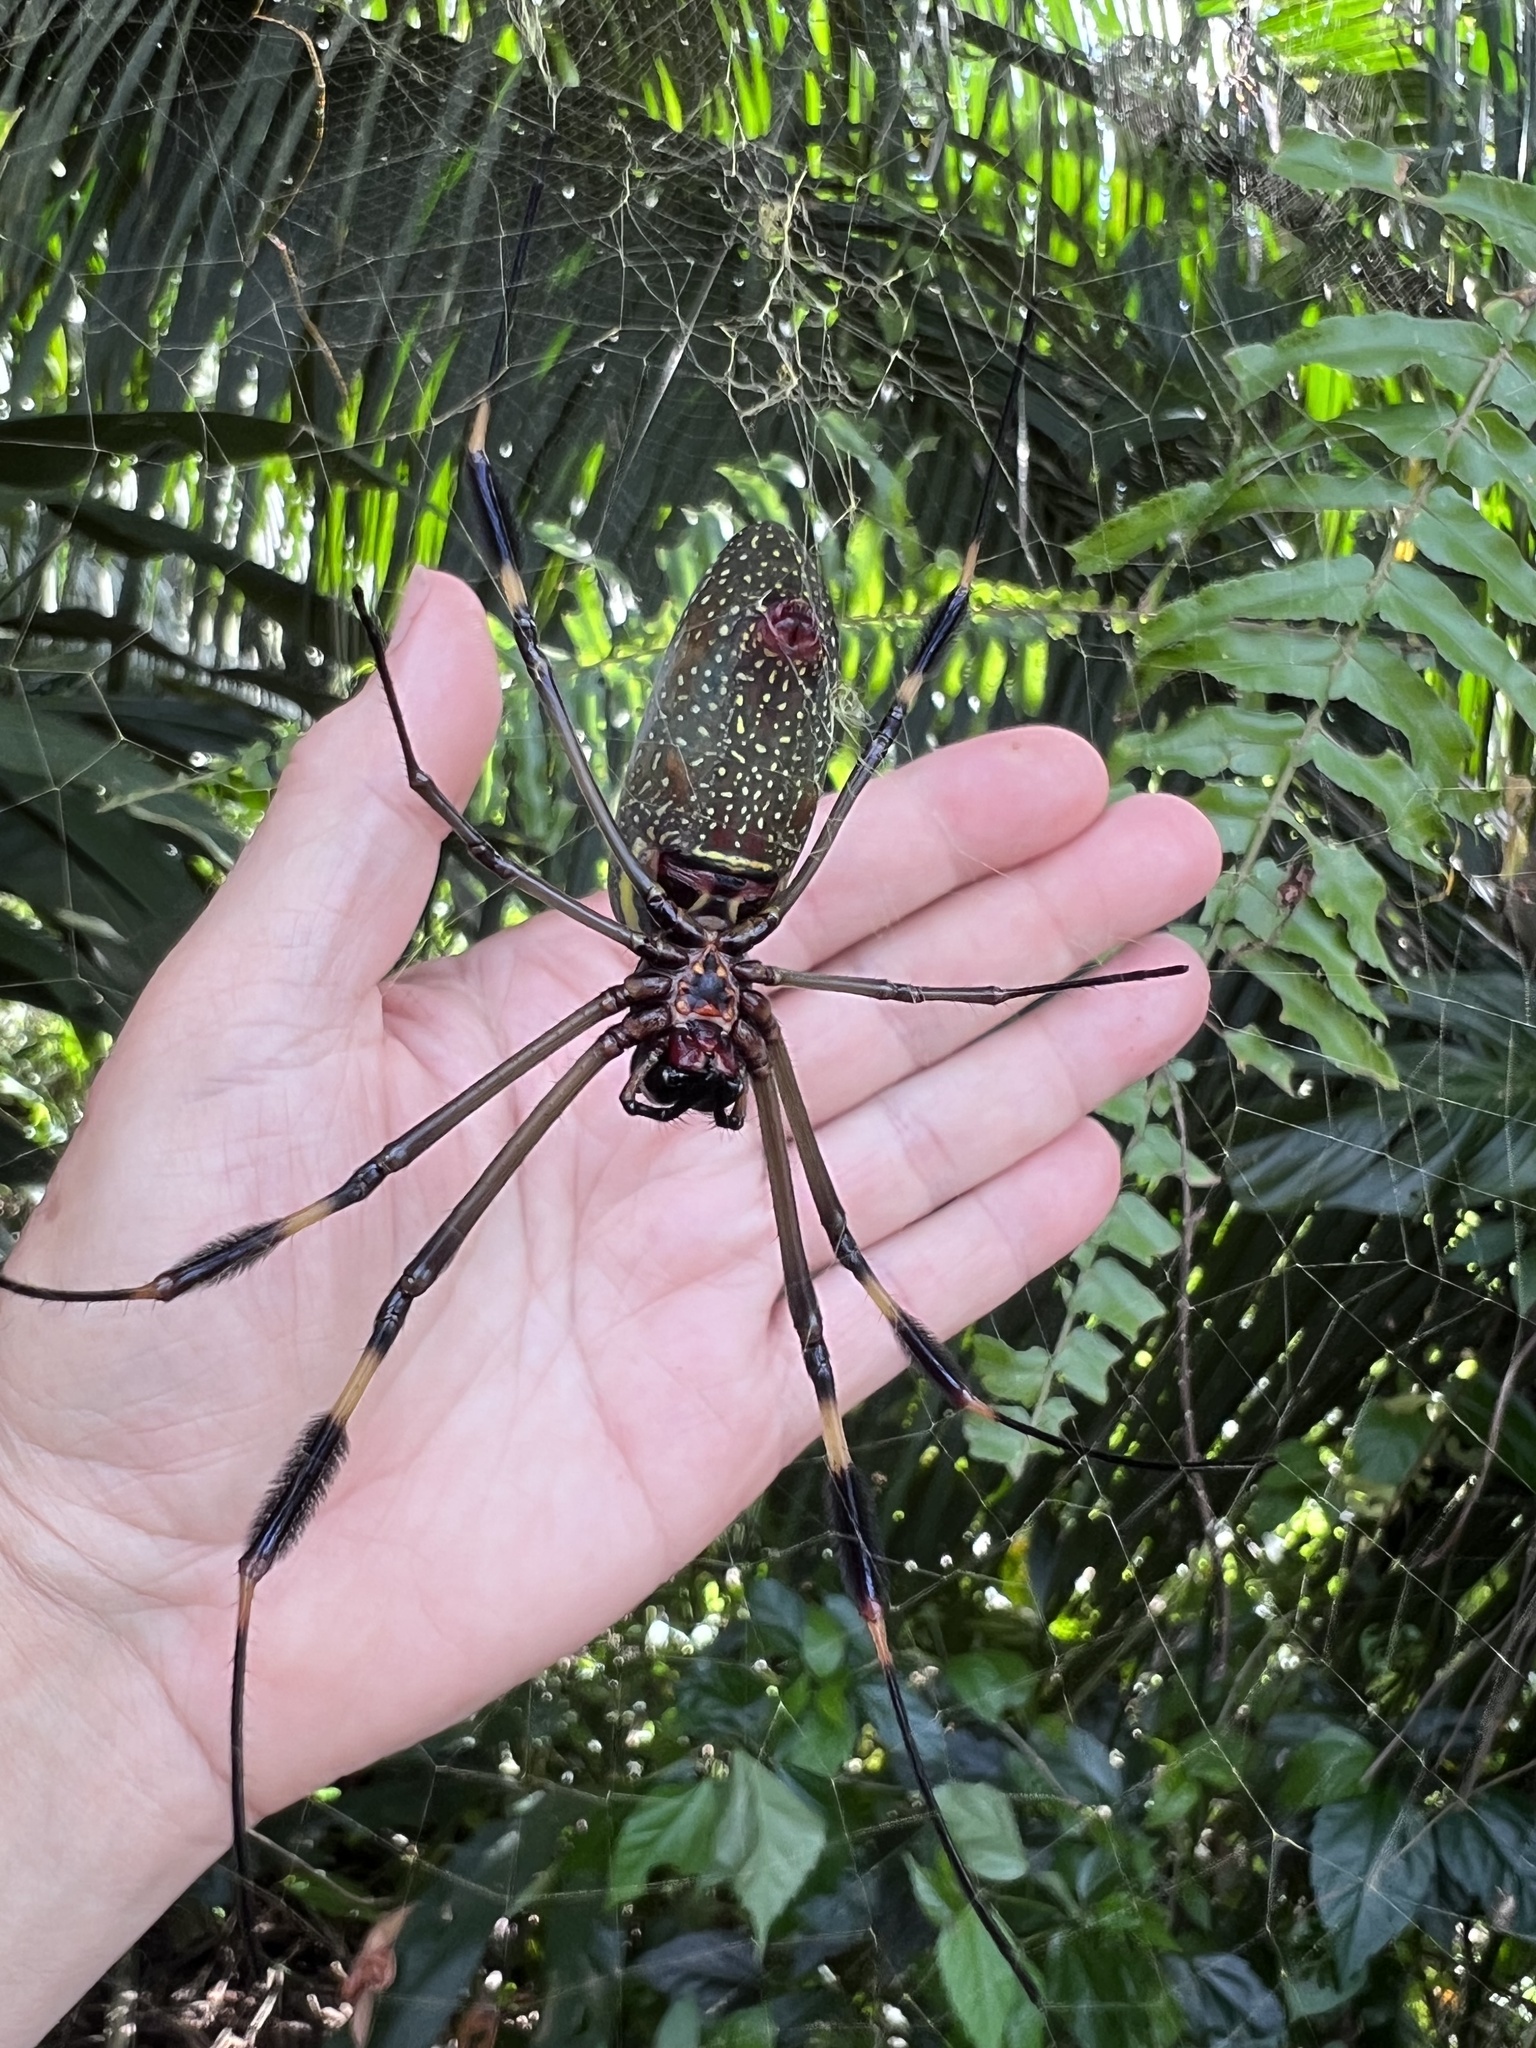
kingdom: Animalia
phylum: Arthropoda
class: Arachnida
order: Araneae
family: Araneidae
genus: Trichonephila
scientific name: Trichonephila clavipes
